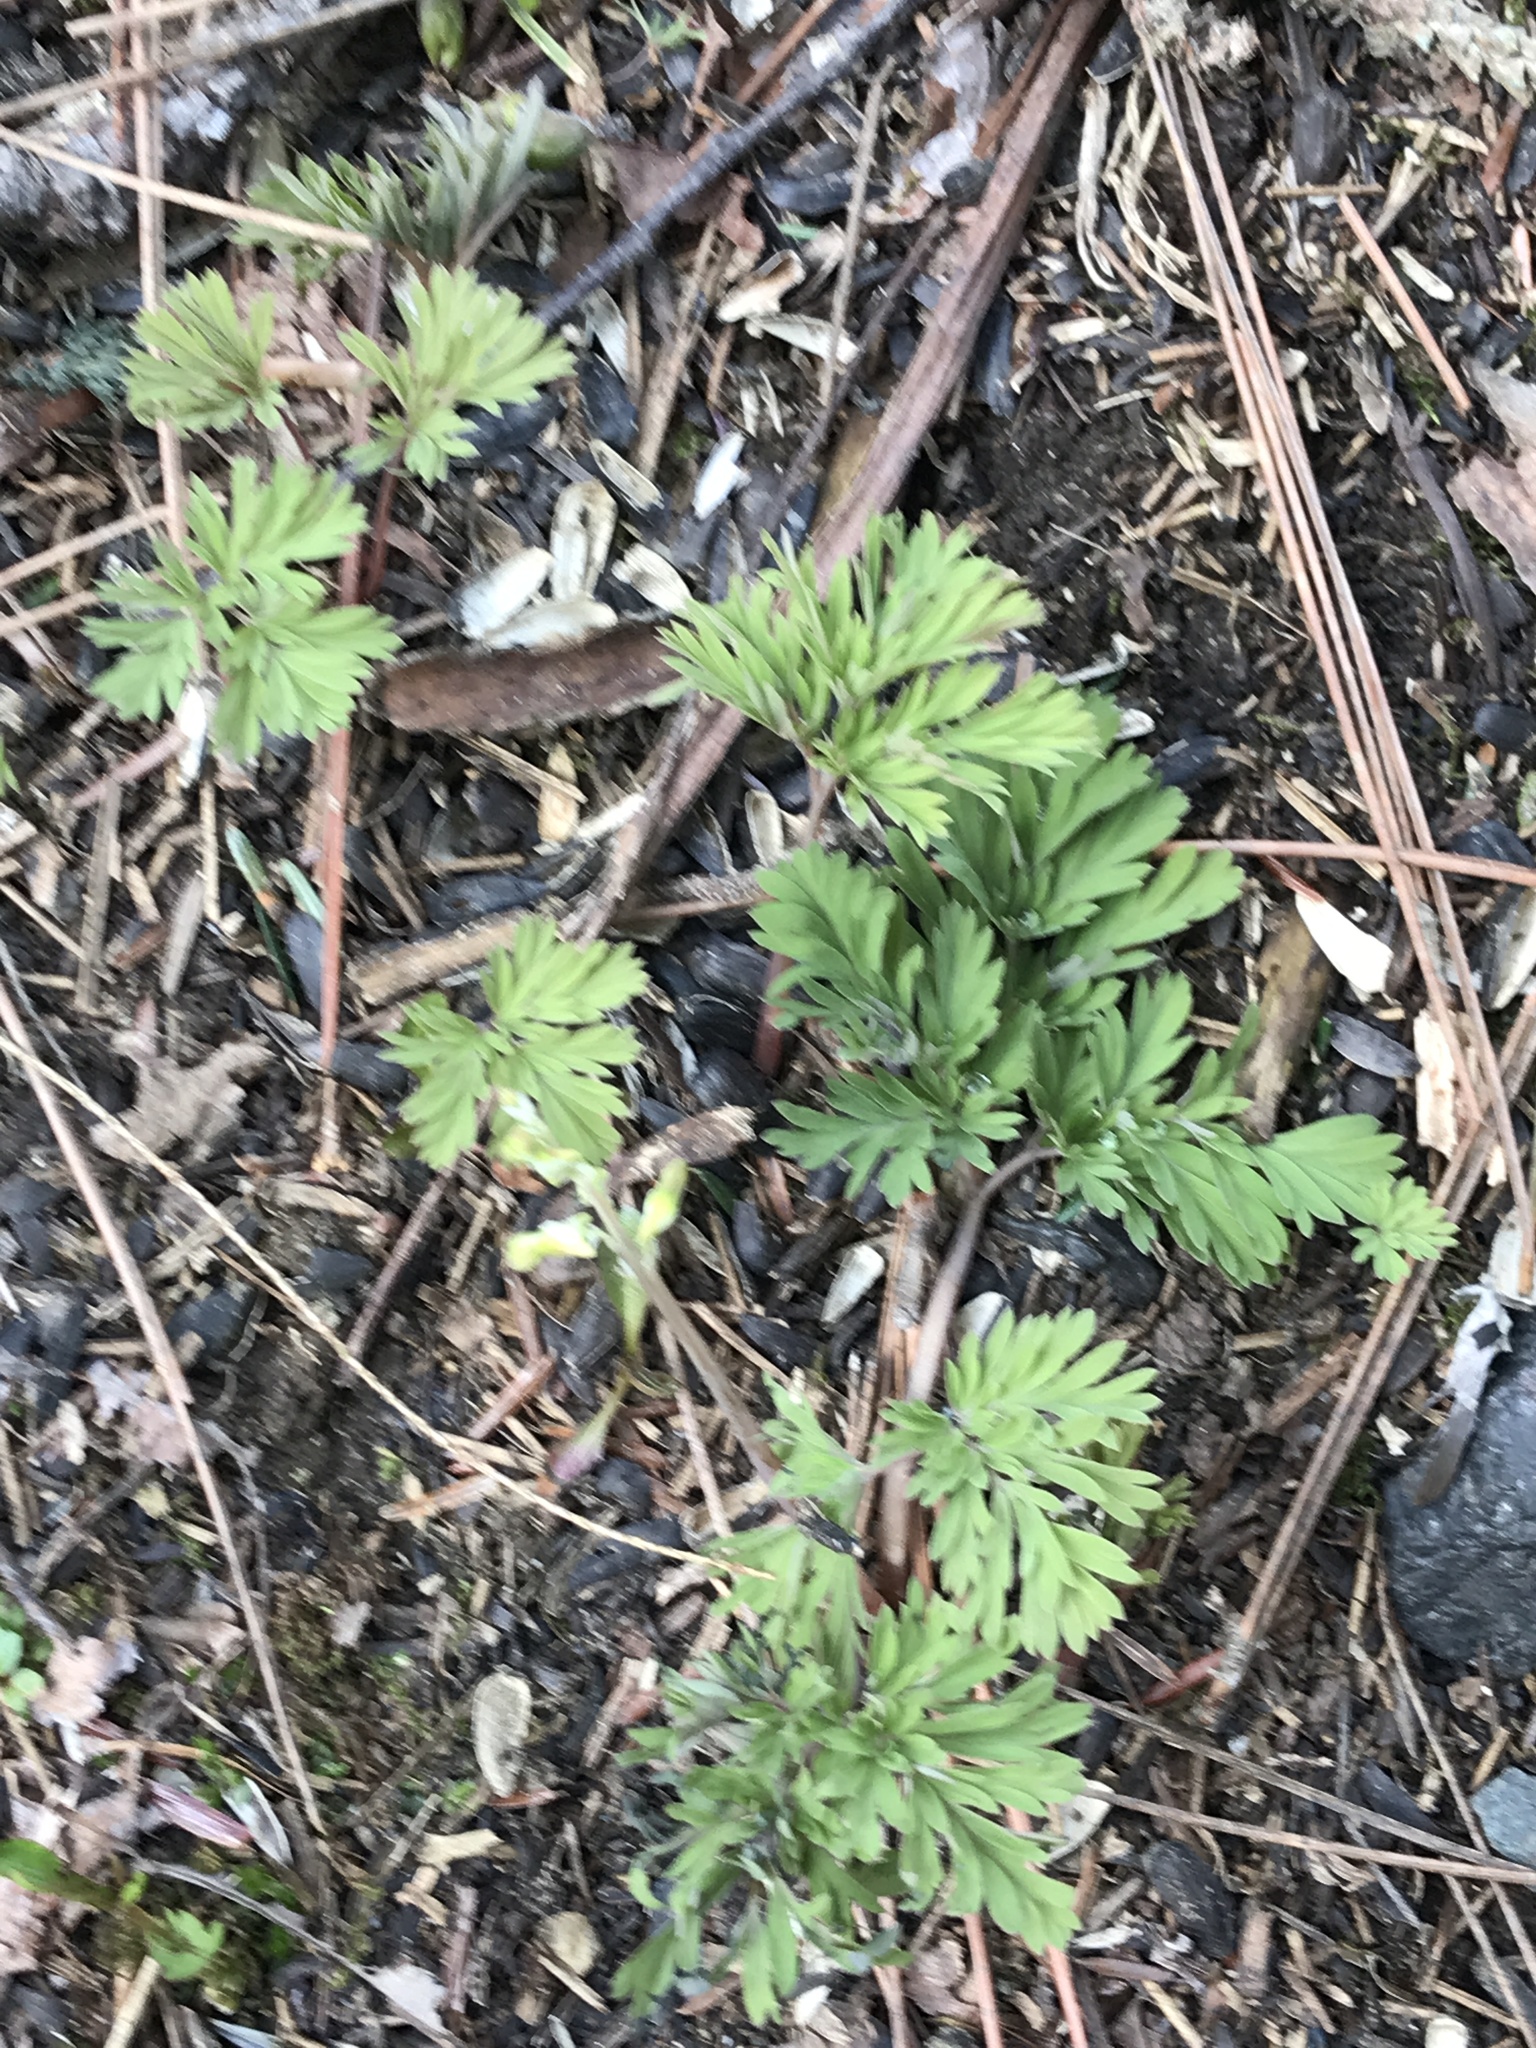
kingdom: Plantae
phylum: Tracheophyta
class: Magnoliopsida
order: Ranunculales
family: Papaveraceae
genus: Dicentra
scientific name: Dicentra cucullaria
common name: Dutchman's breeches
